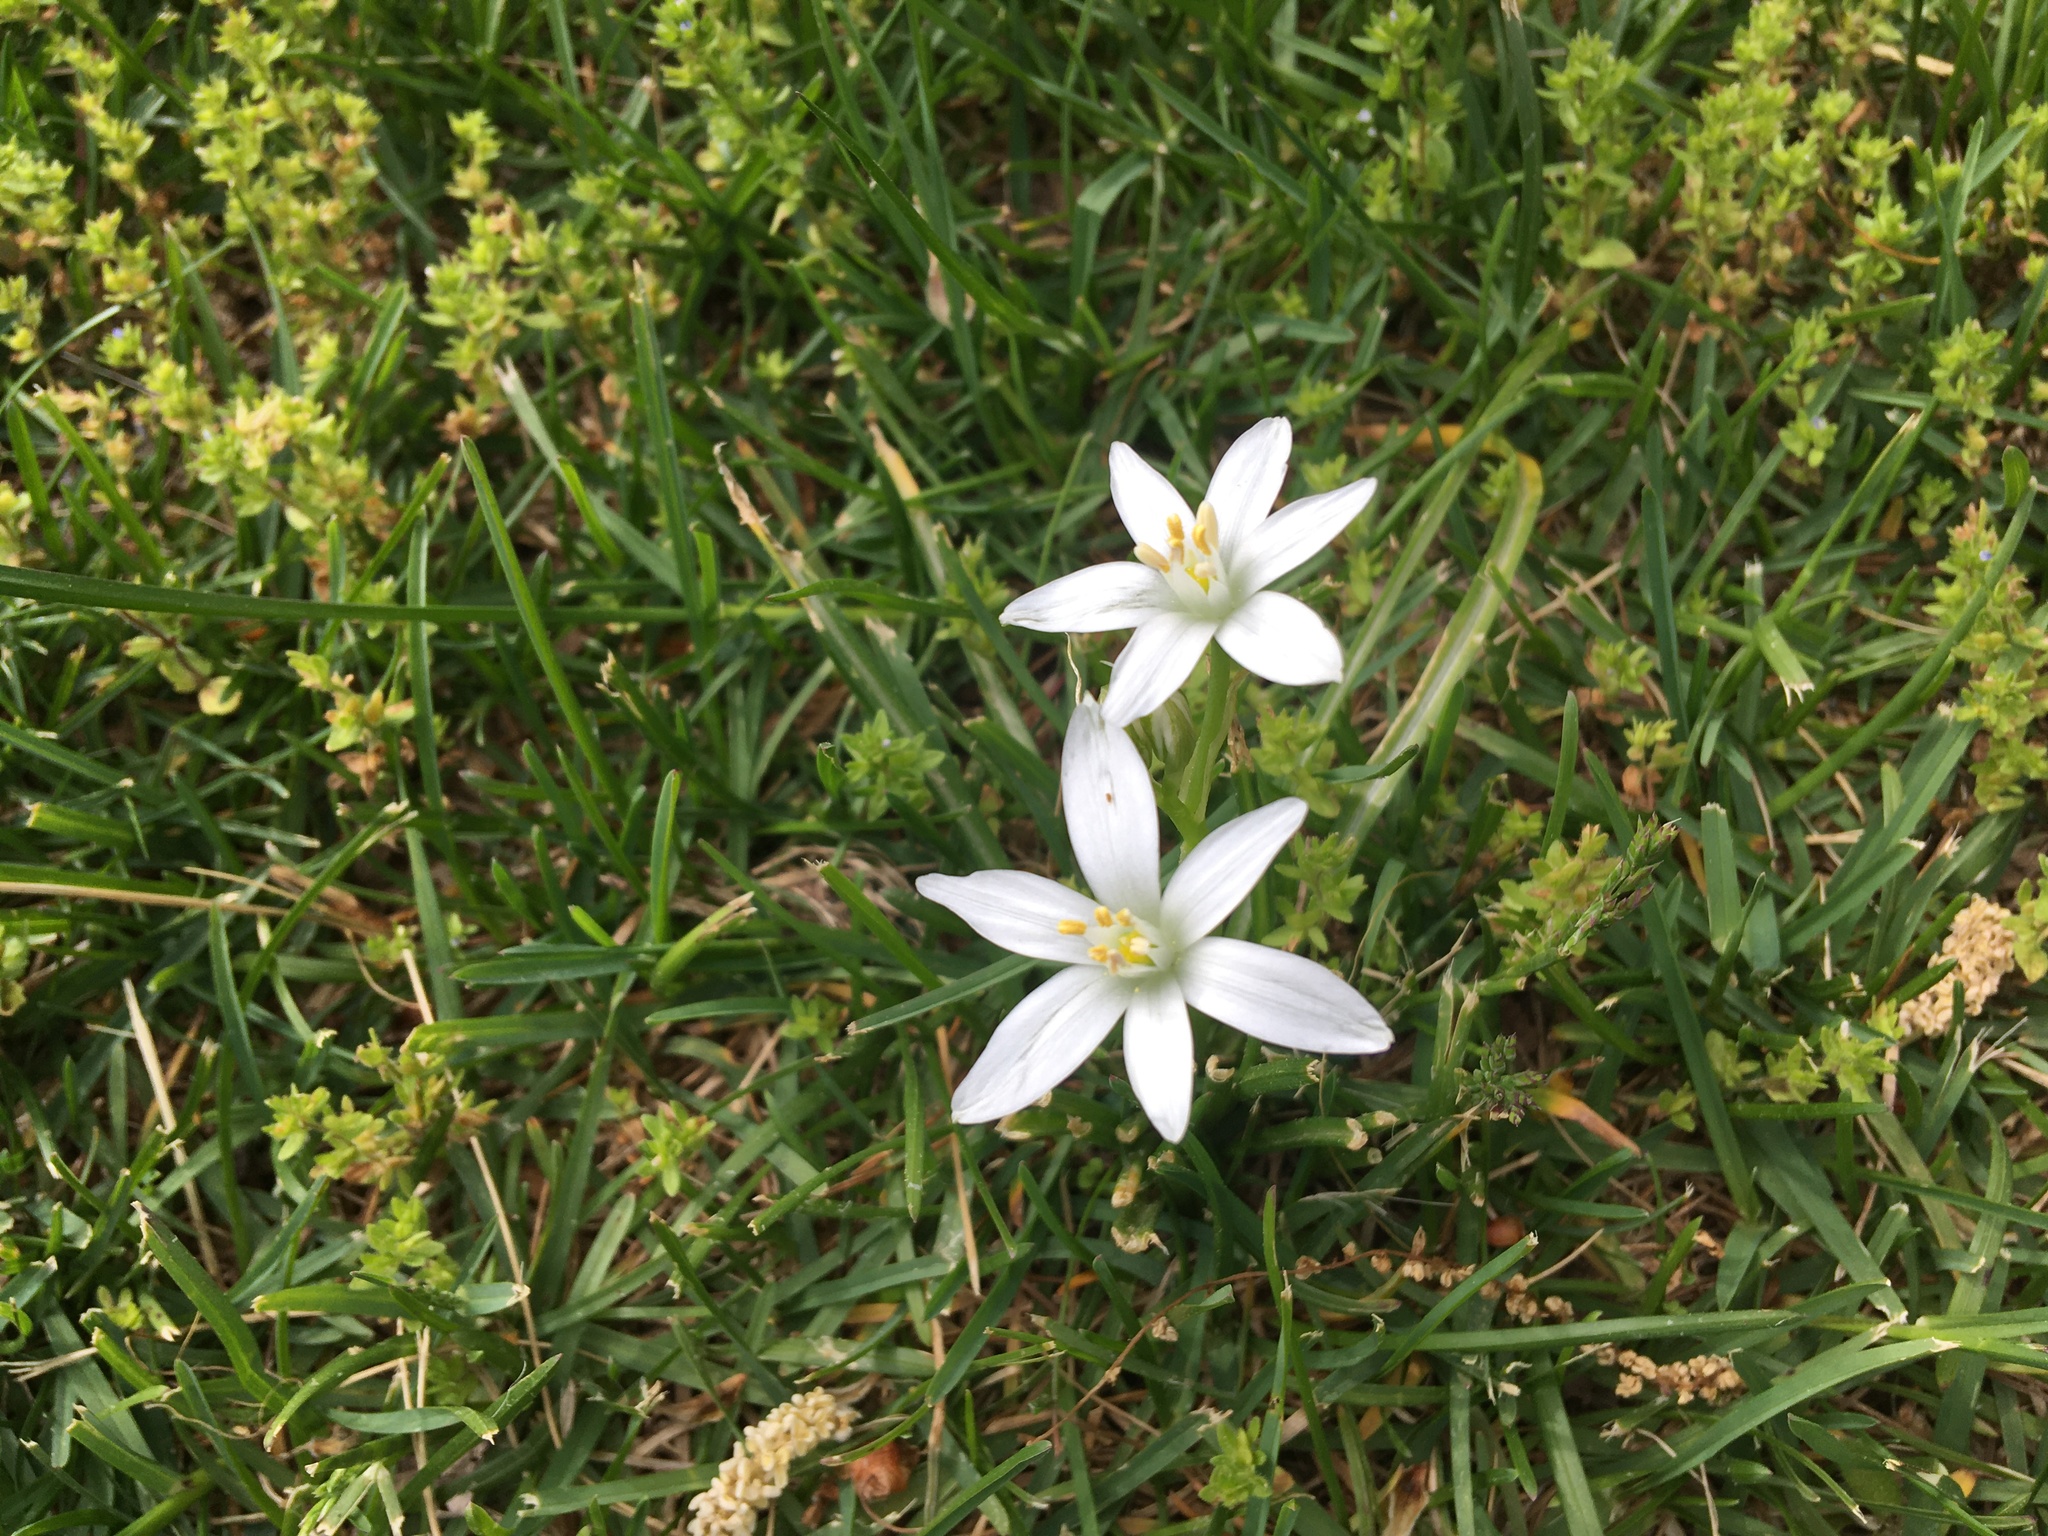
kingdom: Plantae
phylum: Tracheophyta
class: Liliopsida
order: Asparagales
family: Asparagaceae
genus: Ornithogalum
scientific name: Ornithogalum umbellatum
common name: Garden star-of-bethlehem
